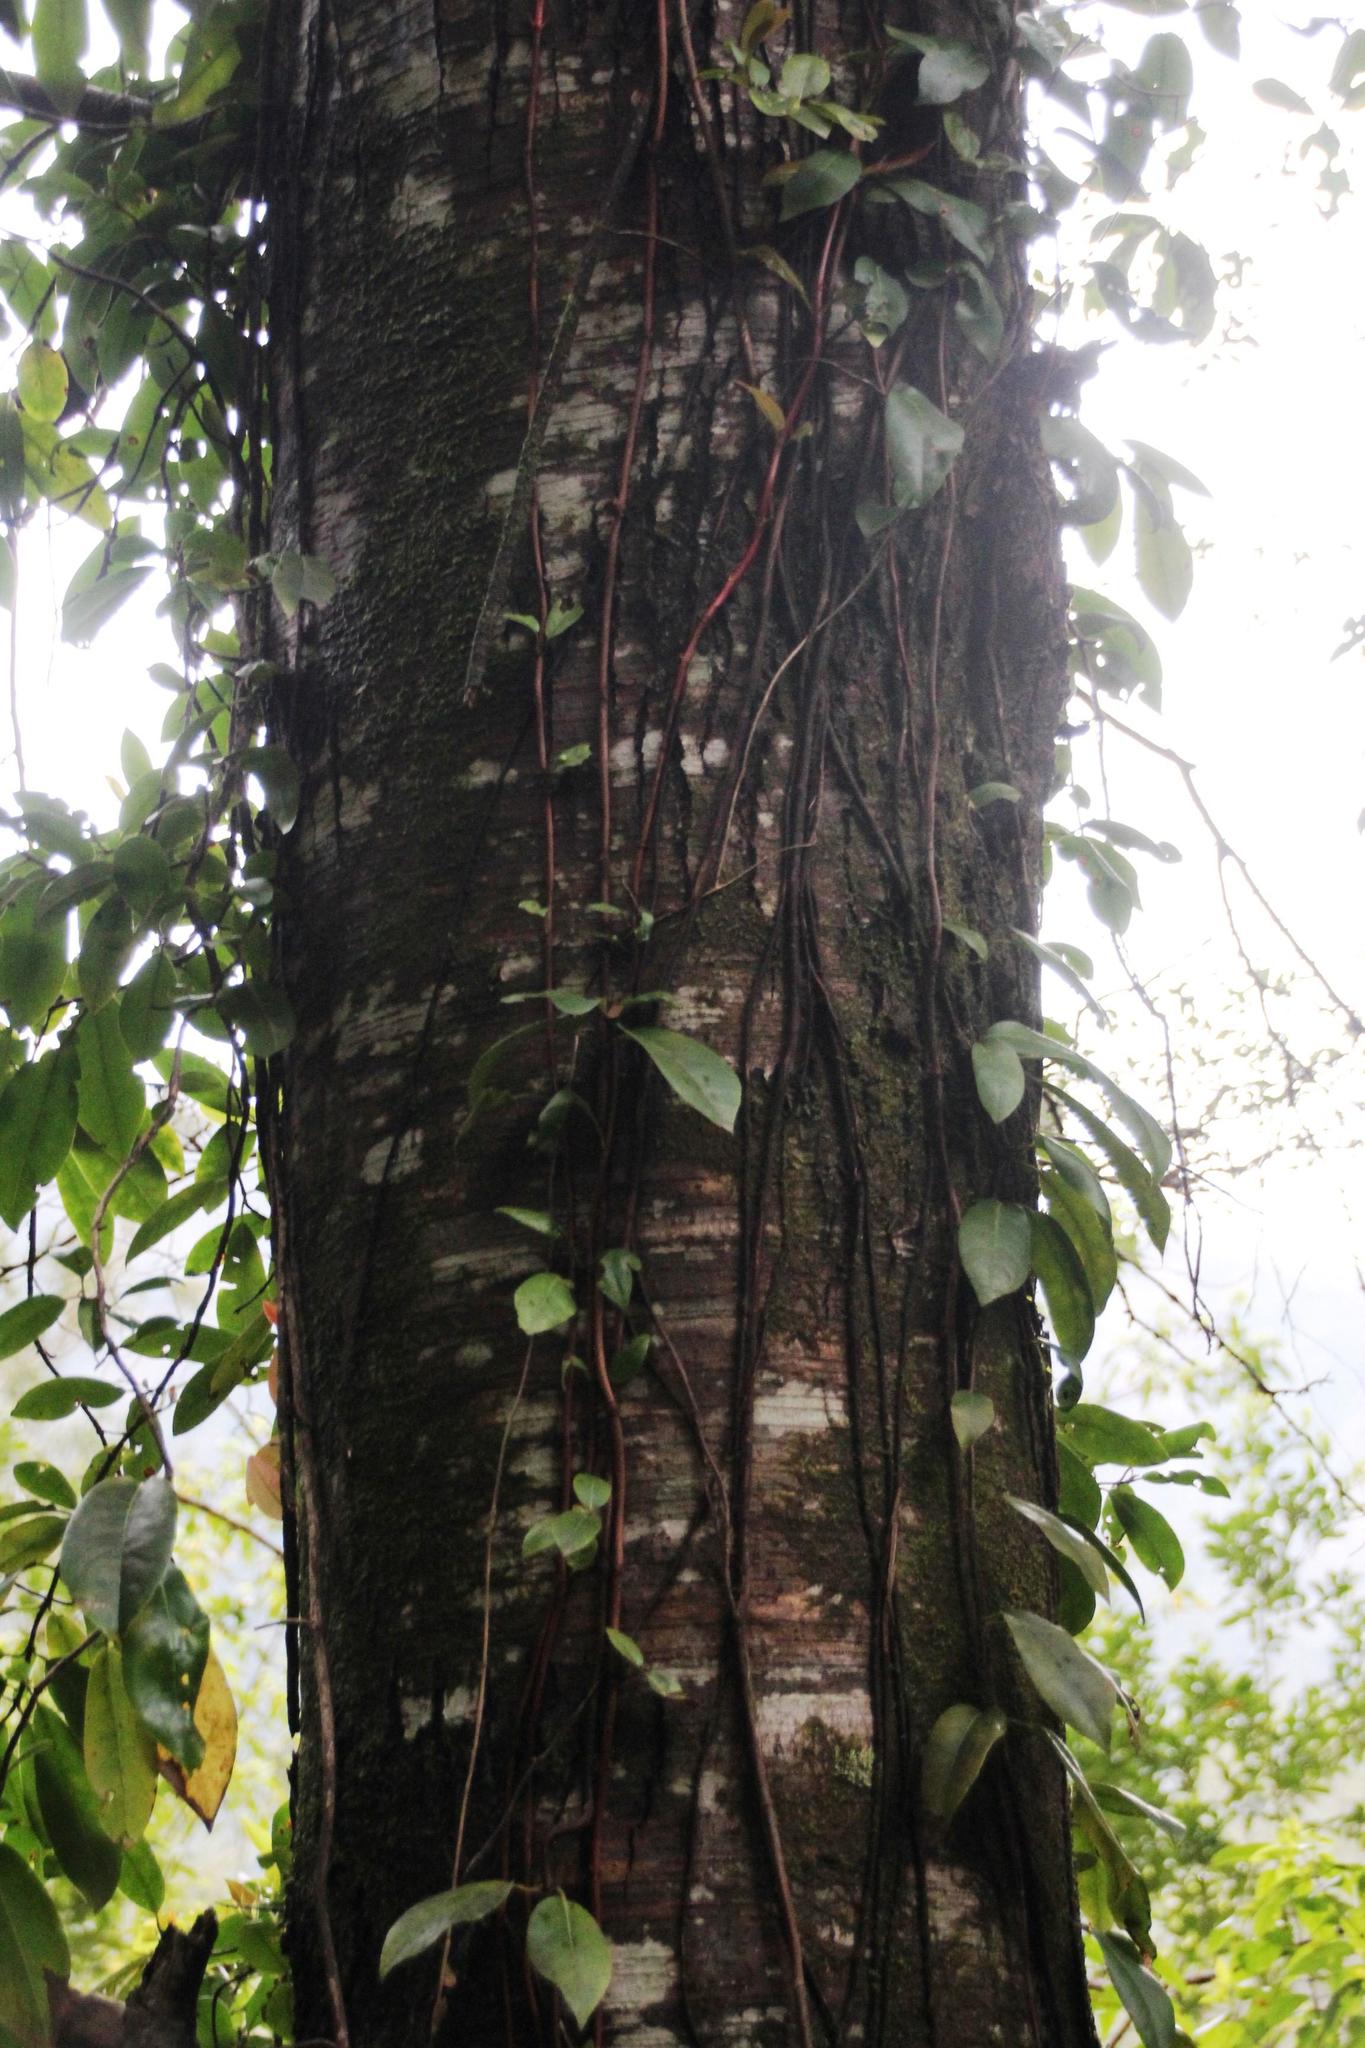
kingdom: Plantae
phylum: Tracheophyta
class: Magnoliopsida
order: Gentianales
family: Apocynaceae
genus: Mandevilla
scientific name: Mandevilla pubescens
